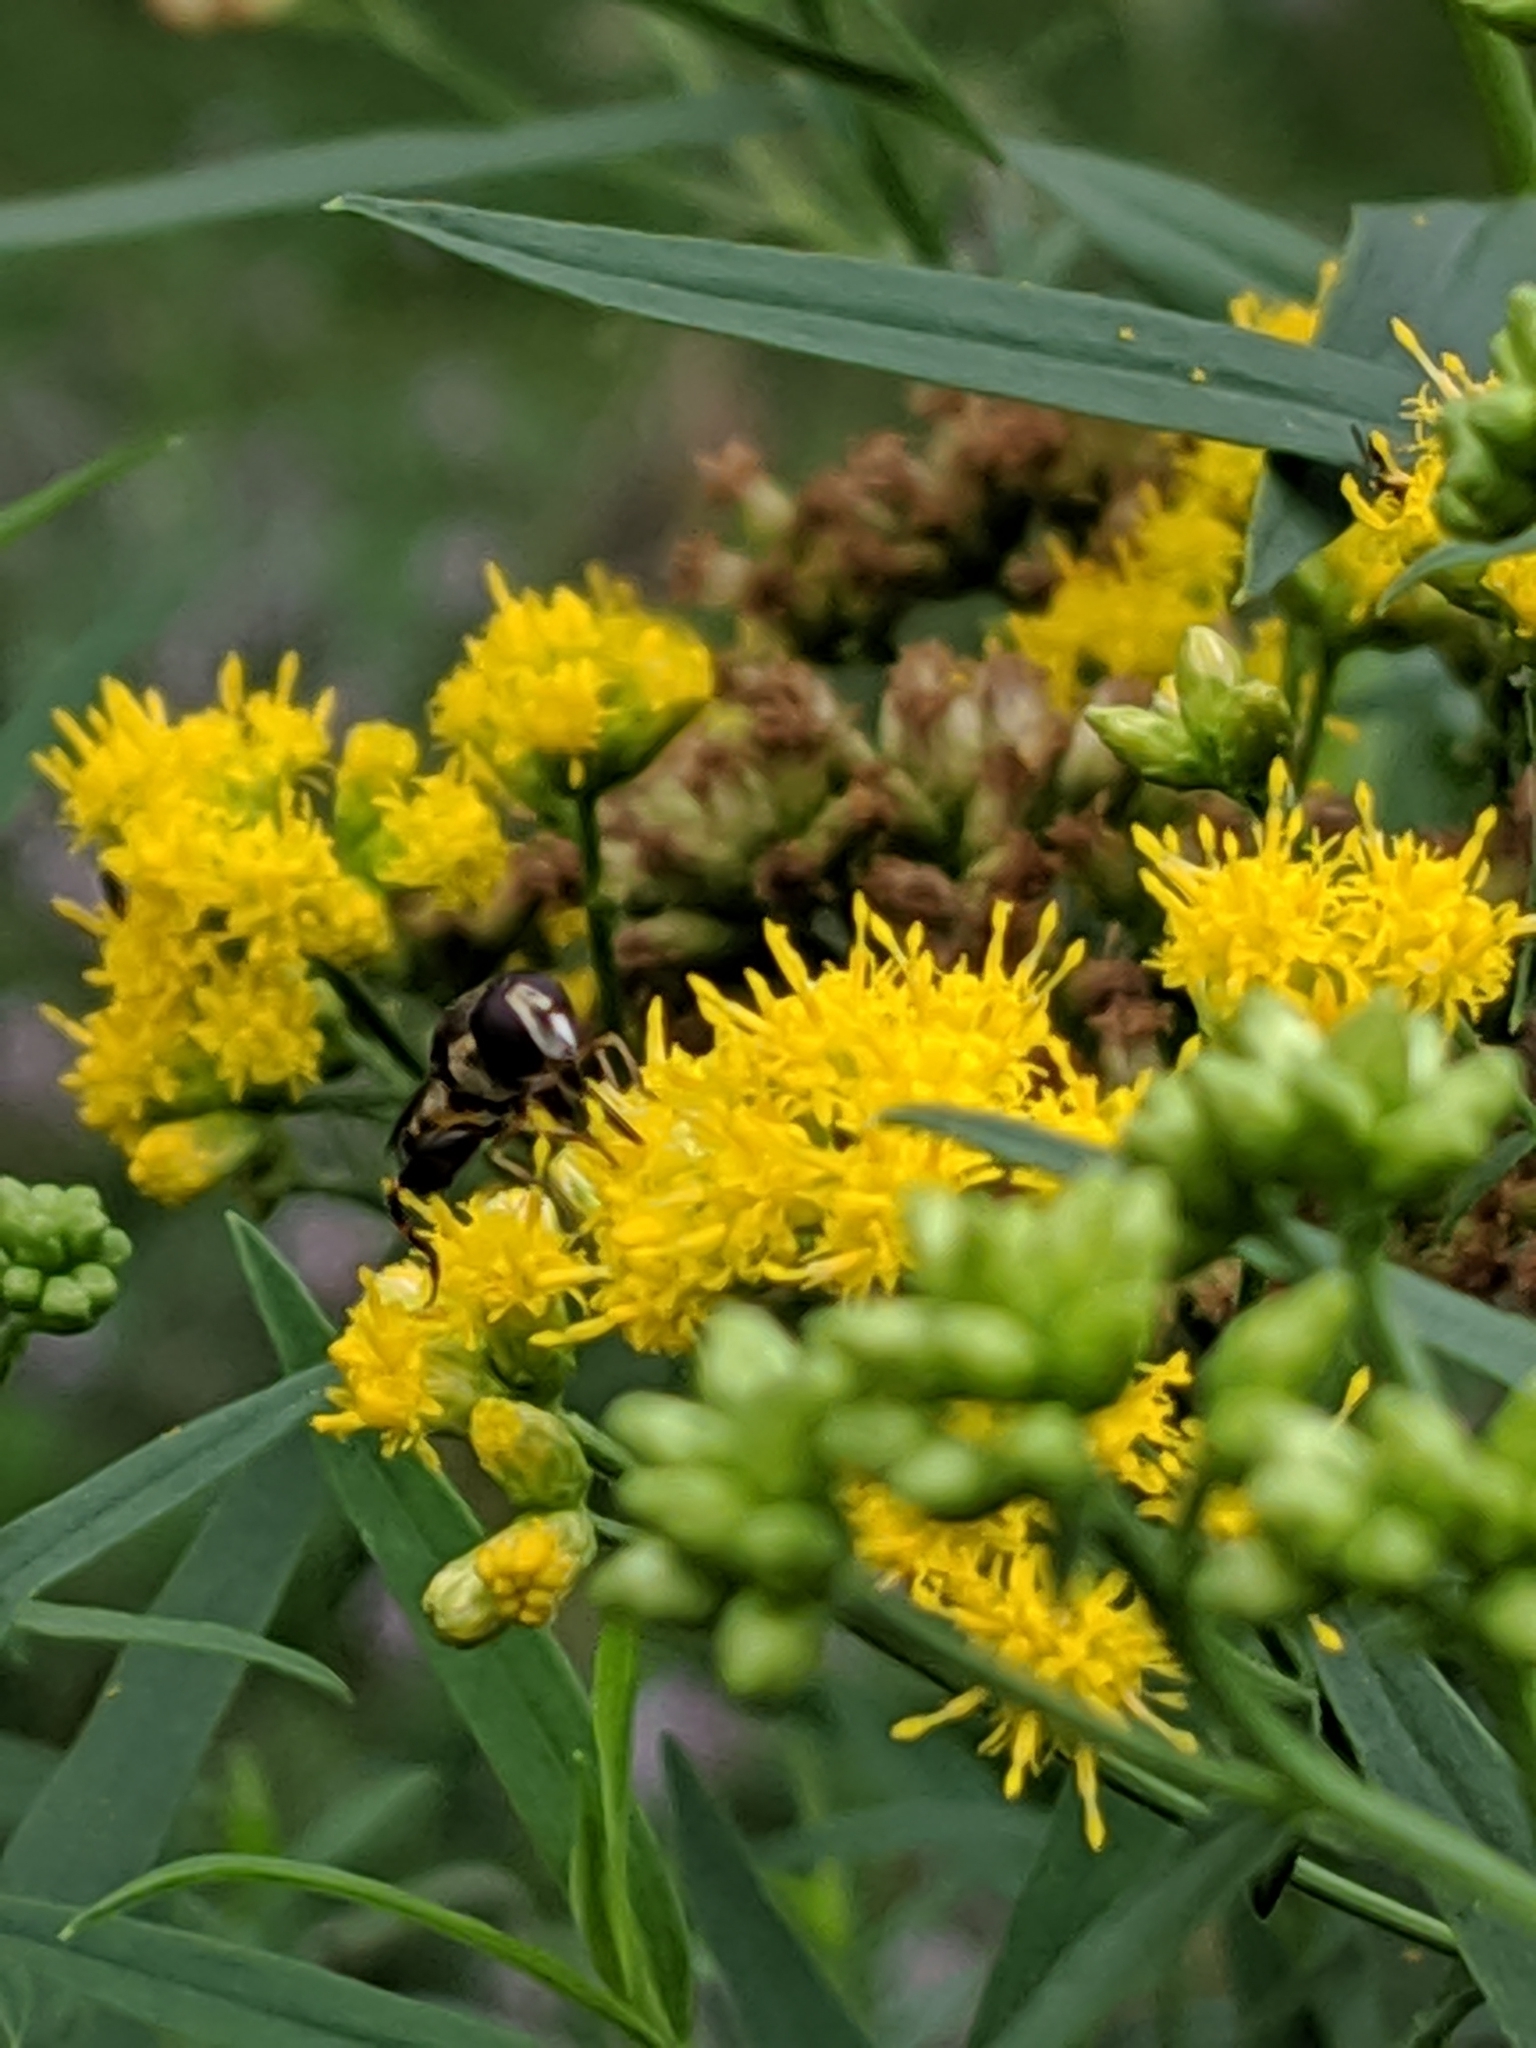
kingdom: Animalia
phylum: Arthropoda
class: Insecta
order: Diptera
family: Syrphidae
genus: Syritta
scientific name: Syritta pipiens
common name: Hover fly
